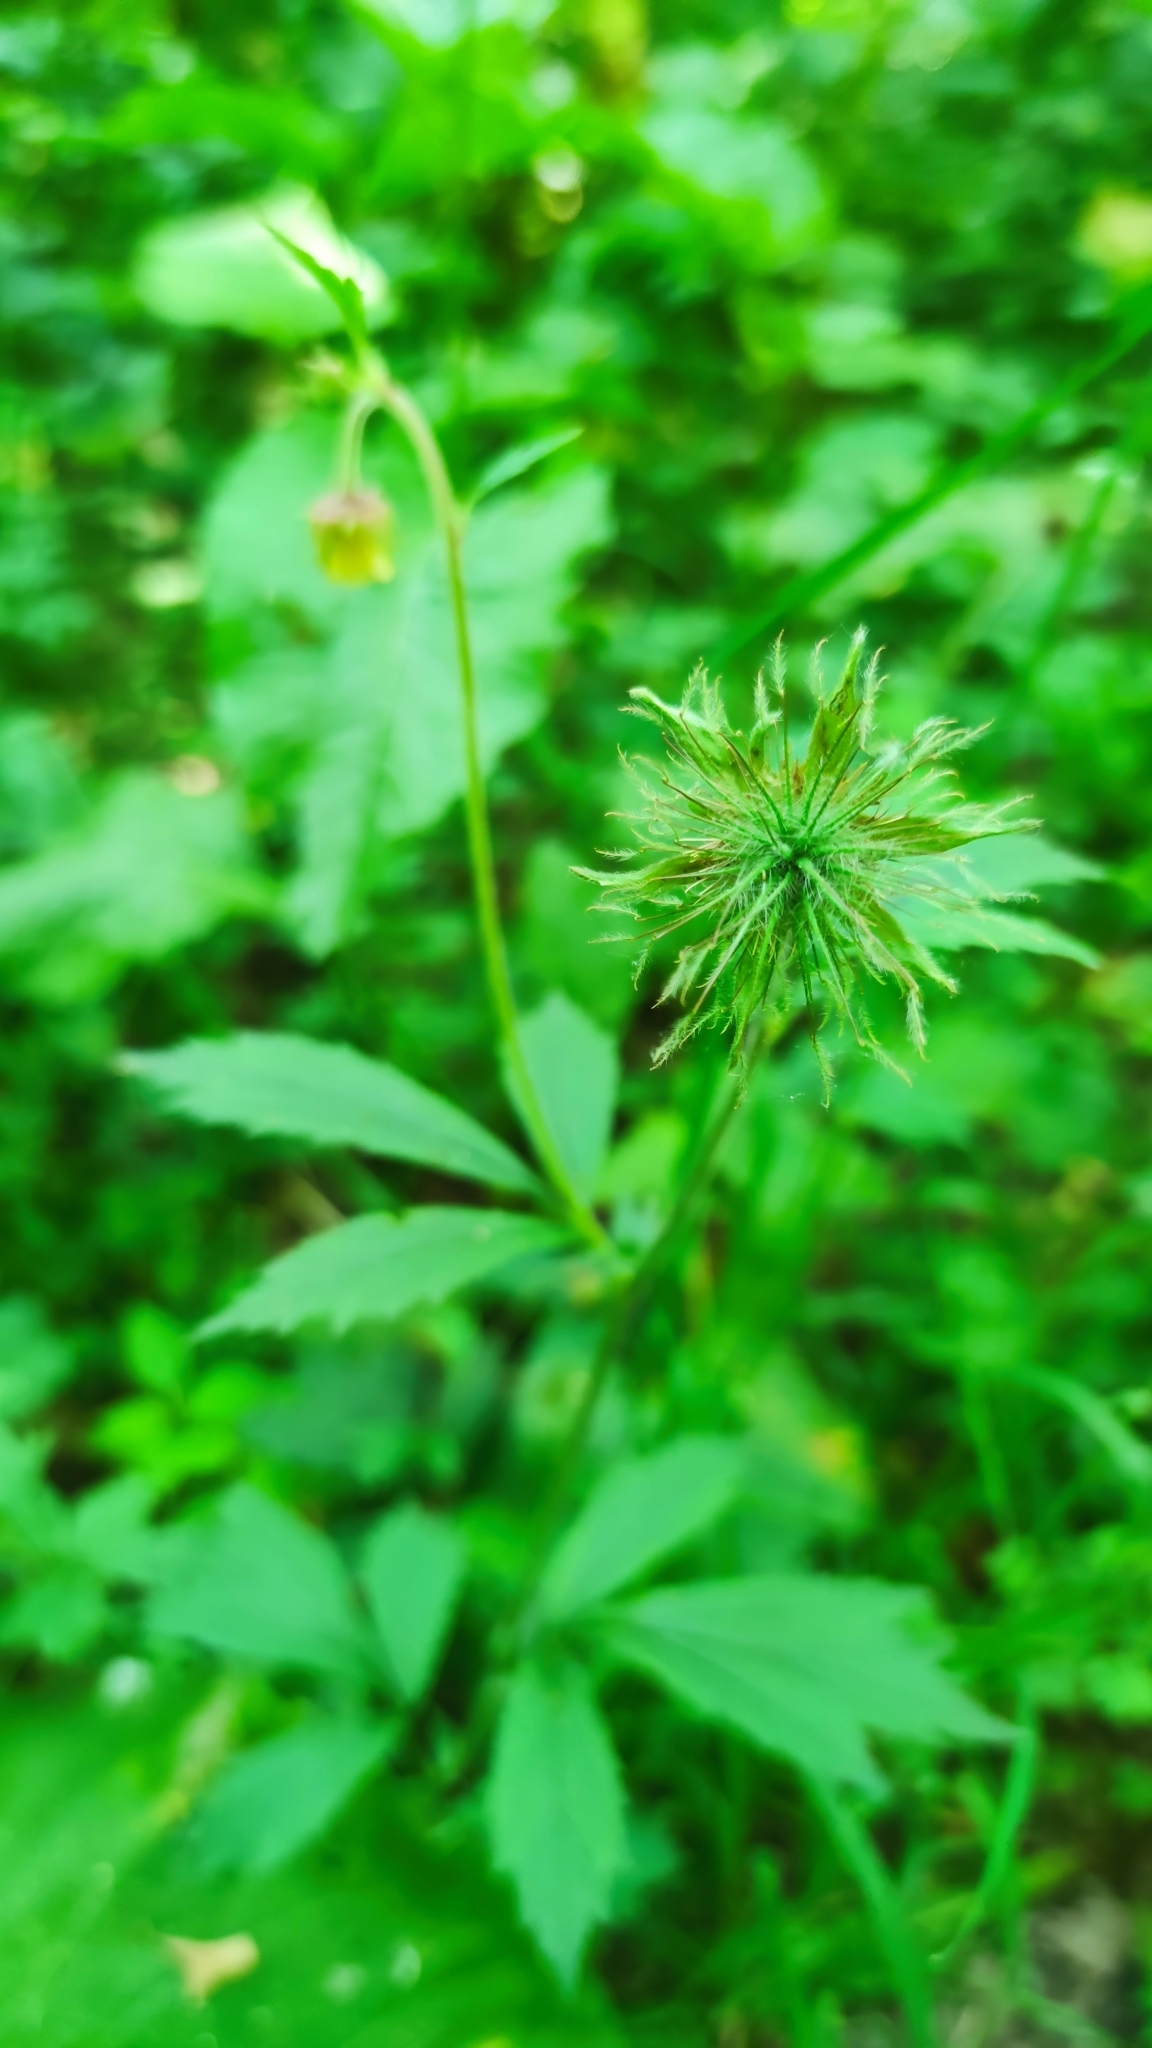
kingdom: Plantae
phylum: Tracheophyta
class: Magnoliopsida
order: Rosales
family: Rosaceae
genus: Geum
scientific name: Geum rivale
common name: Water avens
